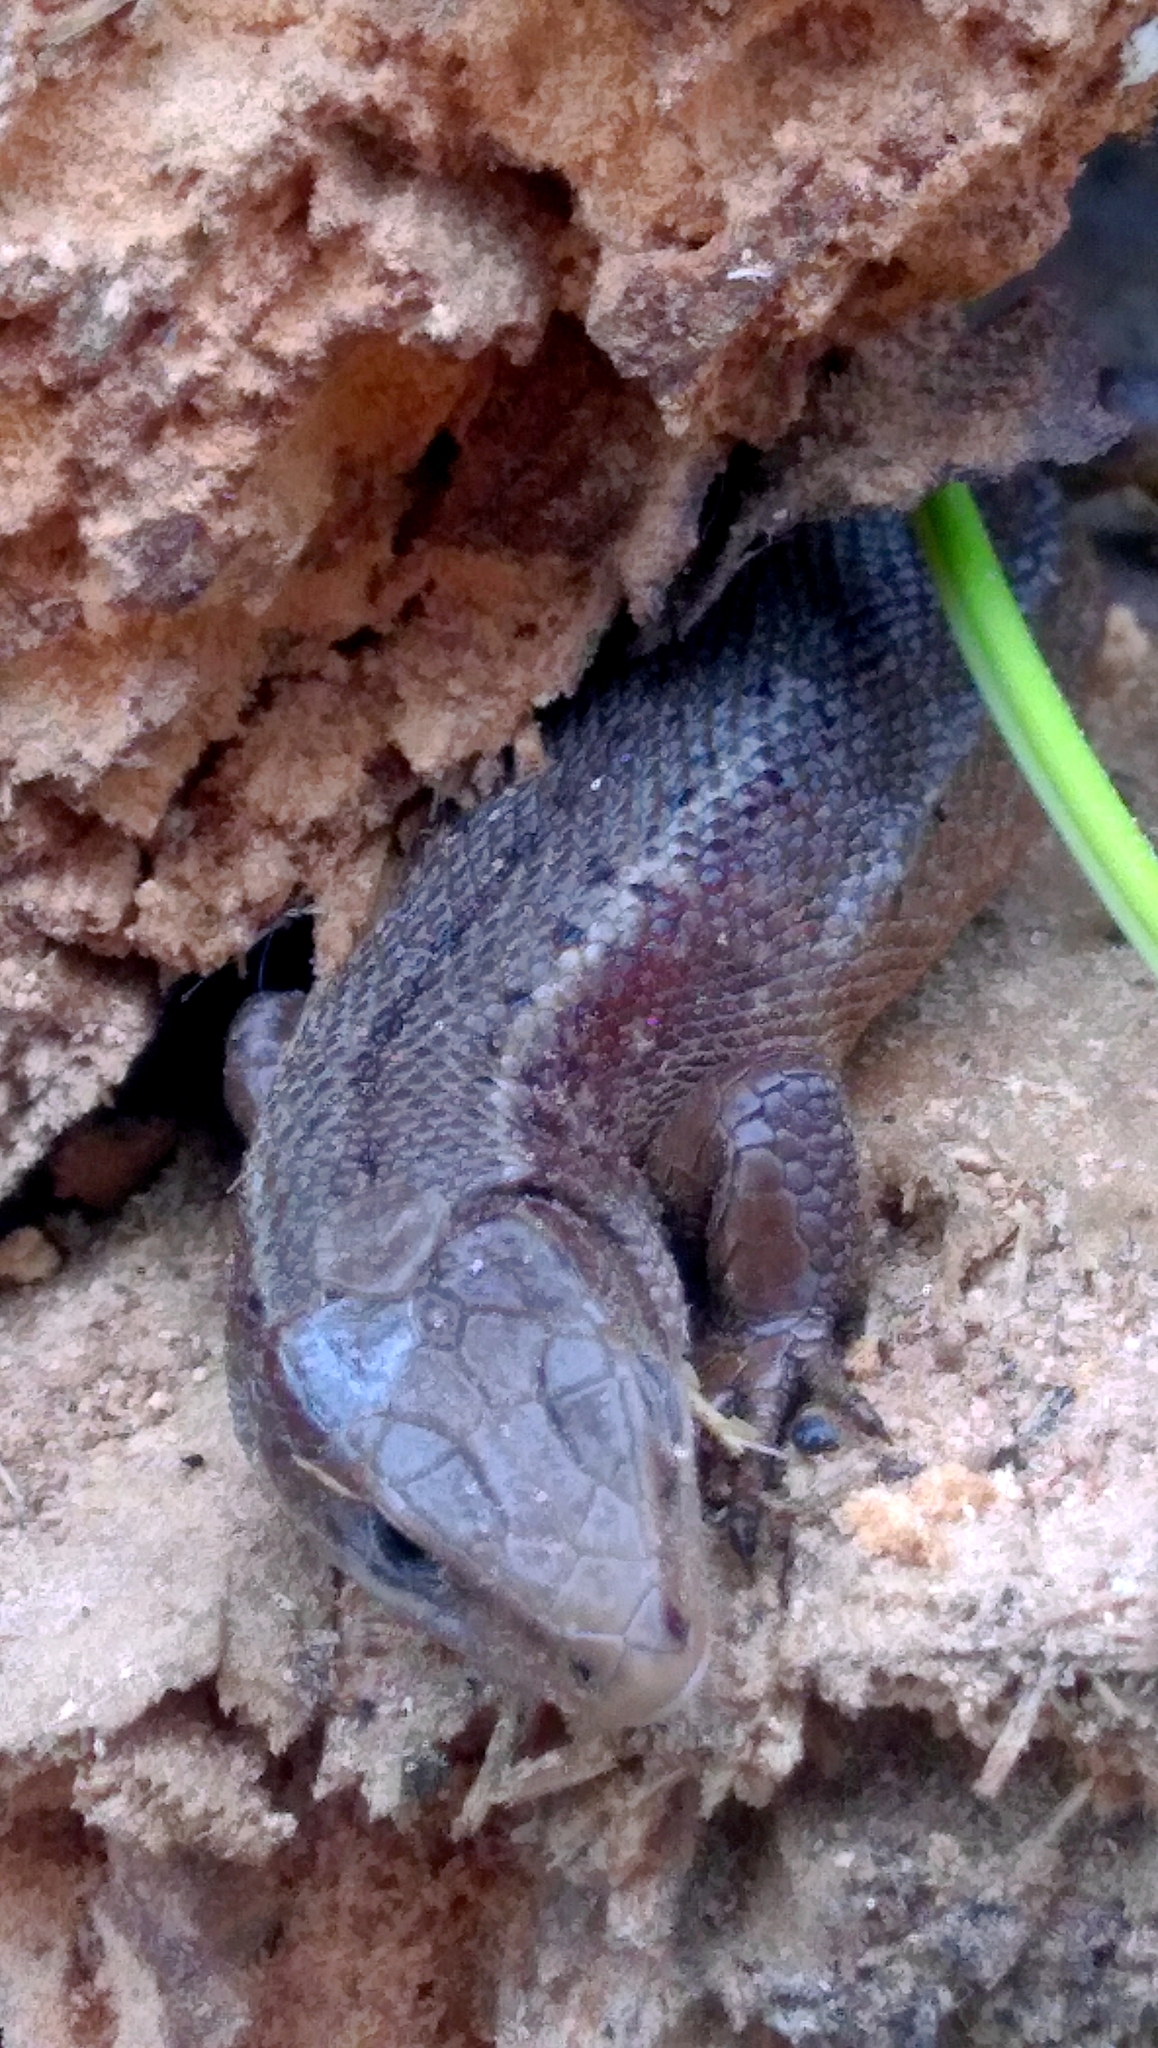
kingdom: Animalia
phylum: Chordata
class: Squamata
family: Lacertidae
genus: Zootoca
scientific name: Zootoca vivipara
